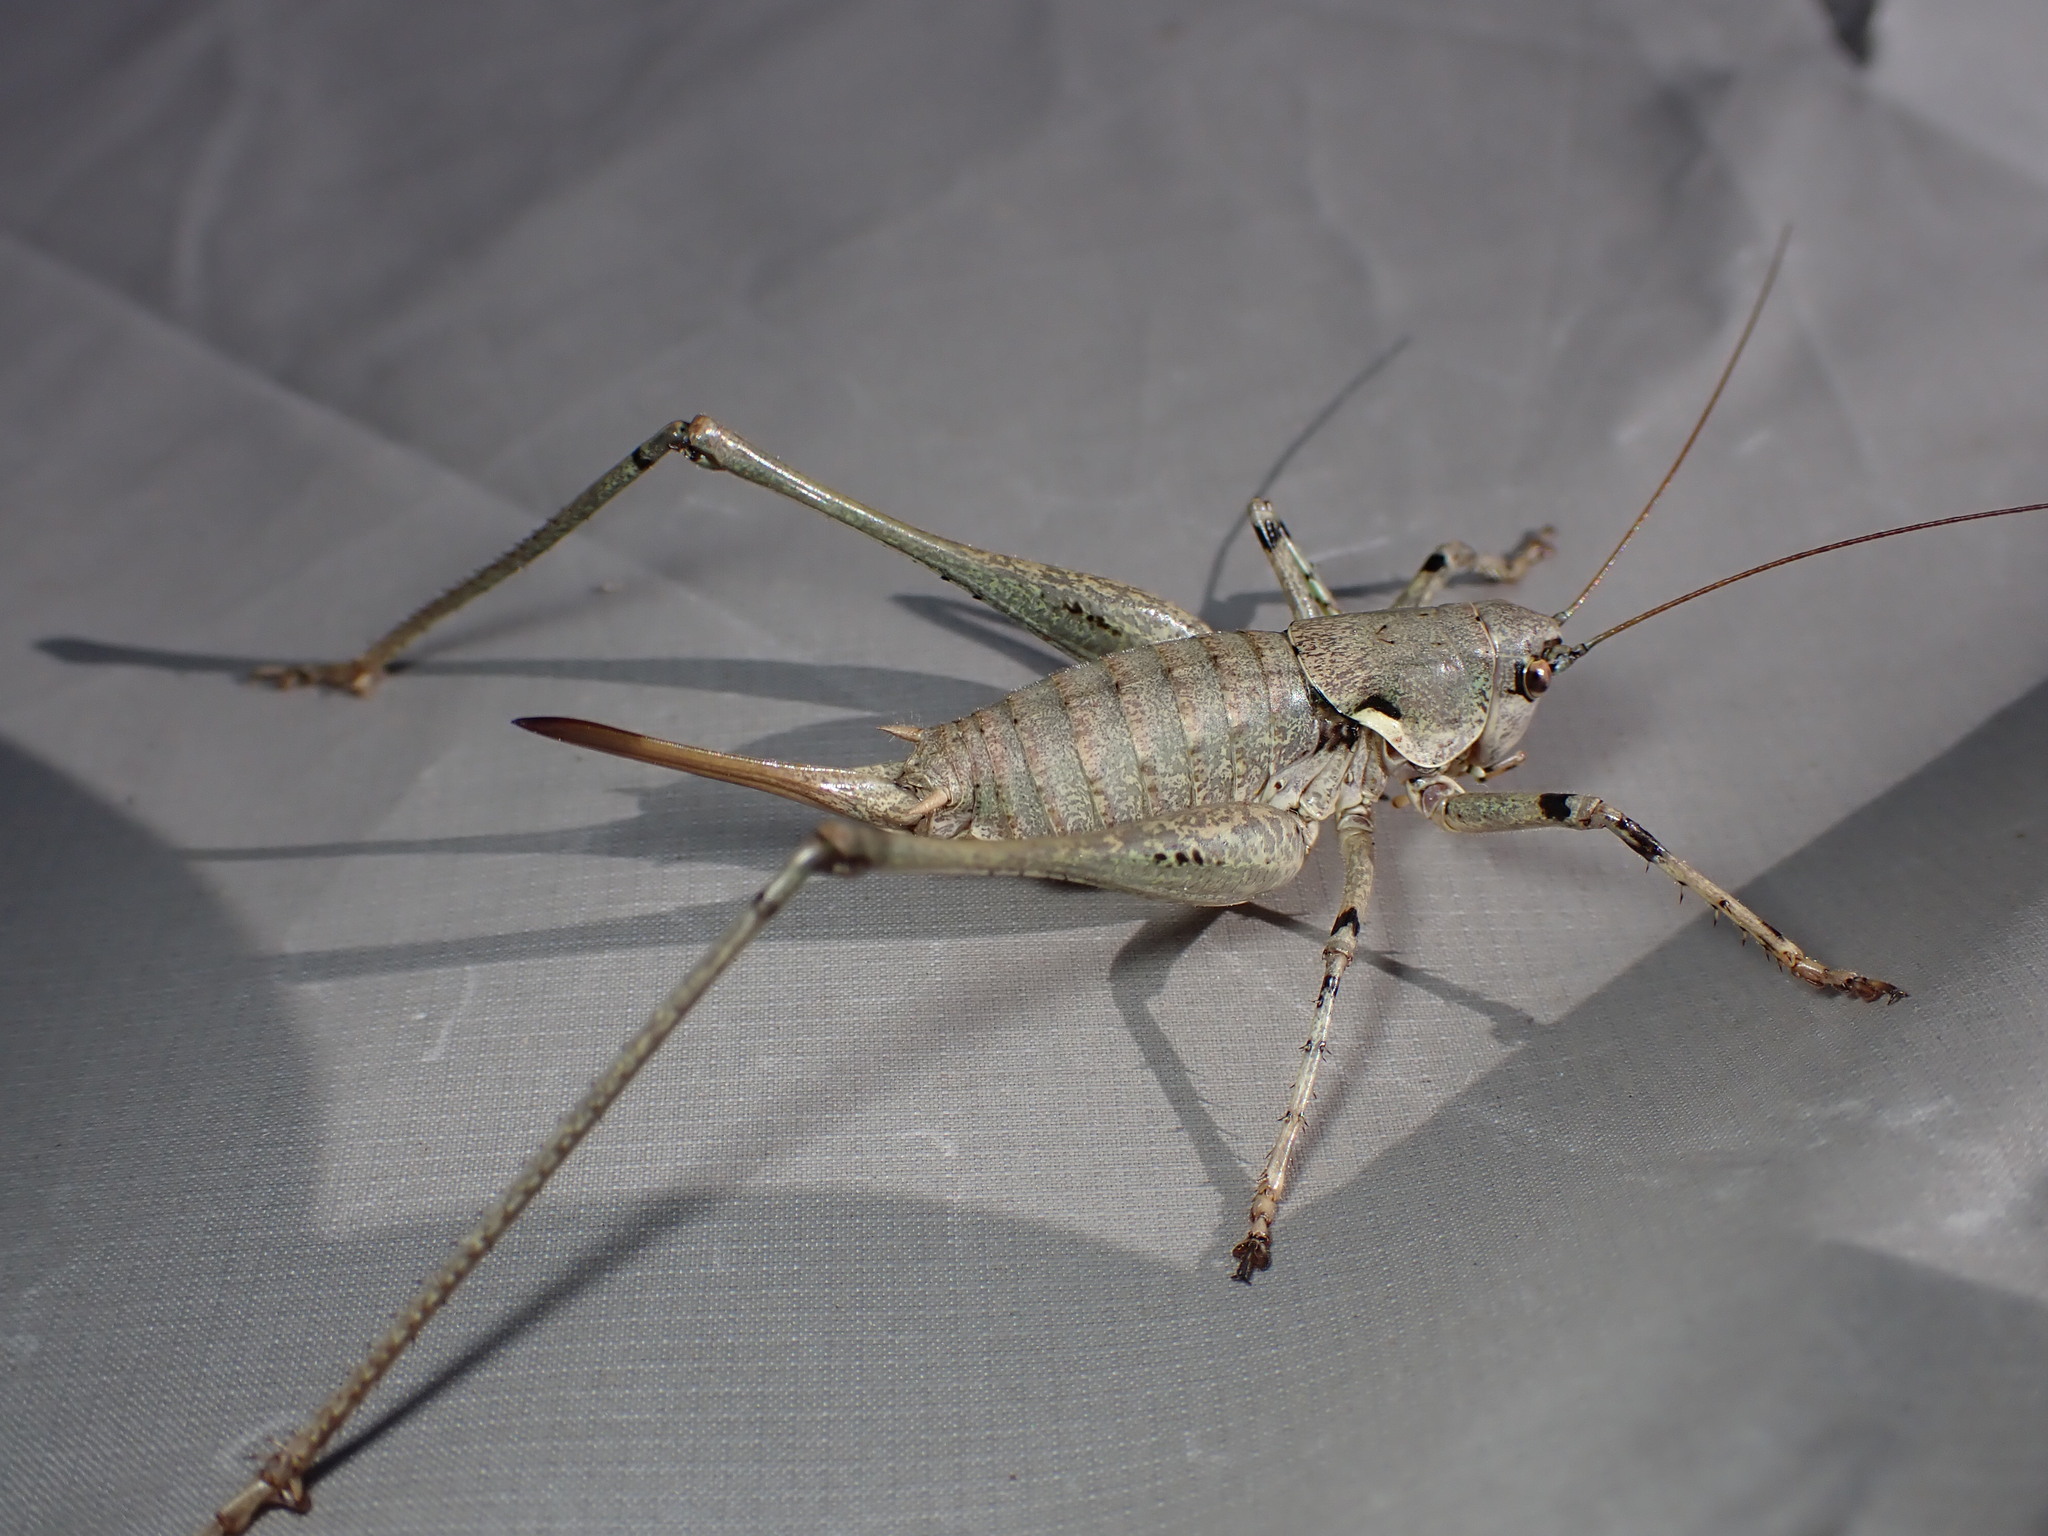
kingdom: Animalia
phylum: Arthropoda
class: Insecta
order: Orthoptera
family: Tettigoniidae
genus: Antaxius
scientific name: Antaxius pedestris
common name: Common mountain bush-cricket
